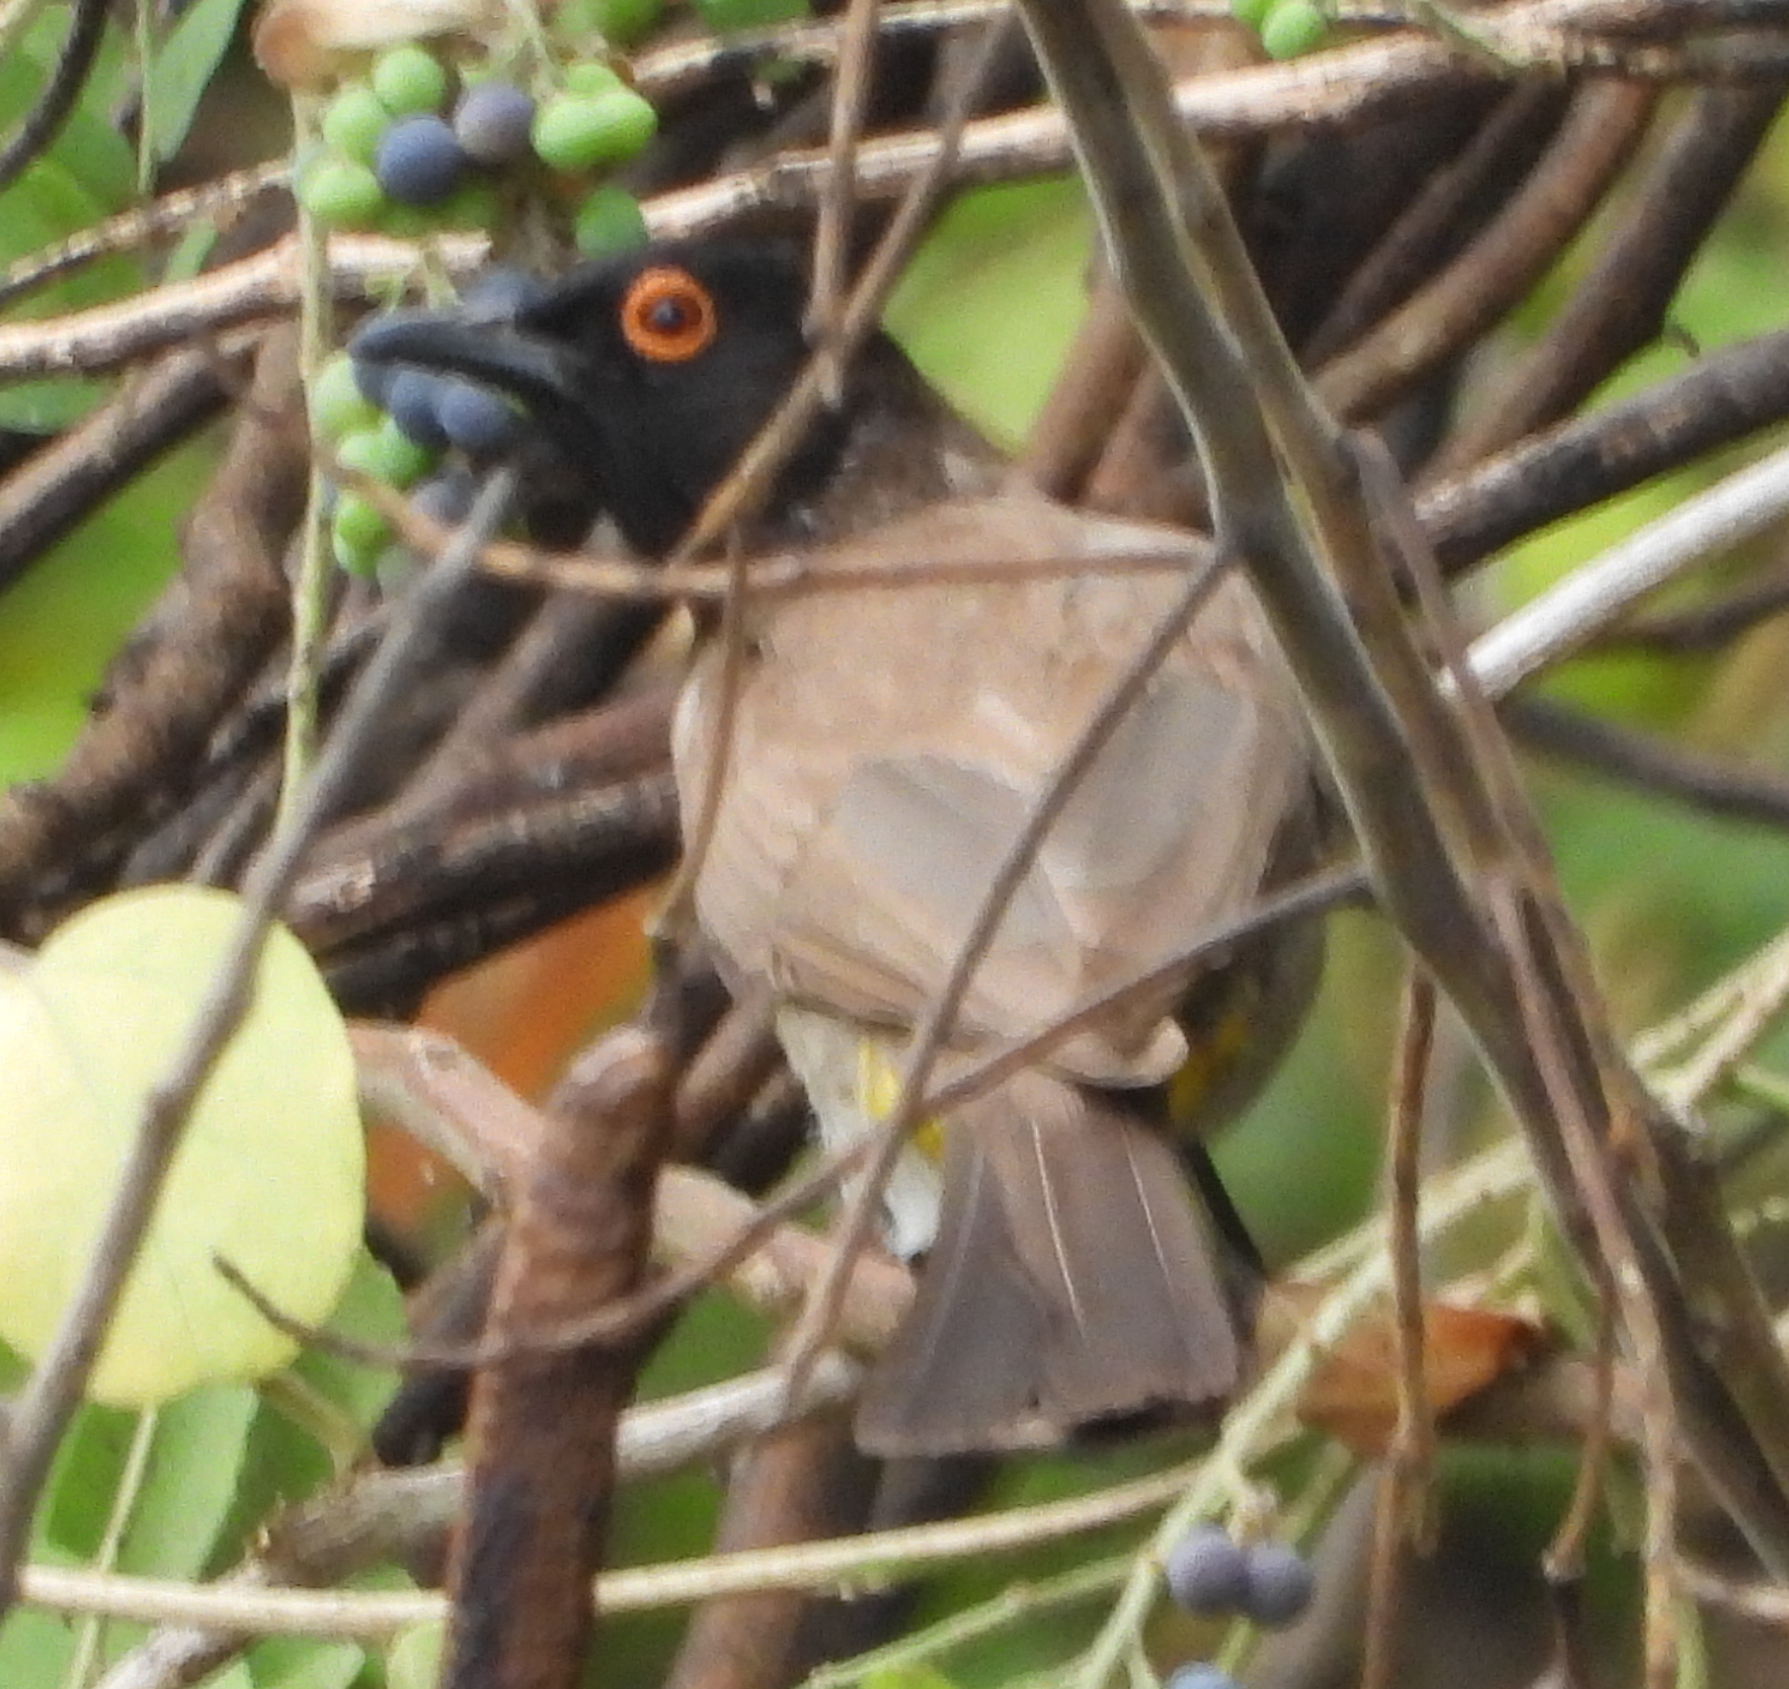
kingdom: Animalia
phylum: Chordata
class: Aves
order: Passeriformes
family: Pycnonotidae
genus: Pycnonotus
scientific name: Pycnonotus nigricans
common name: African red-eyed bulbul
